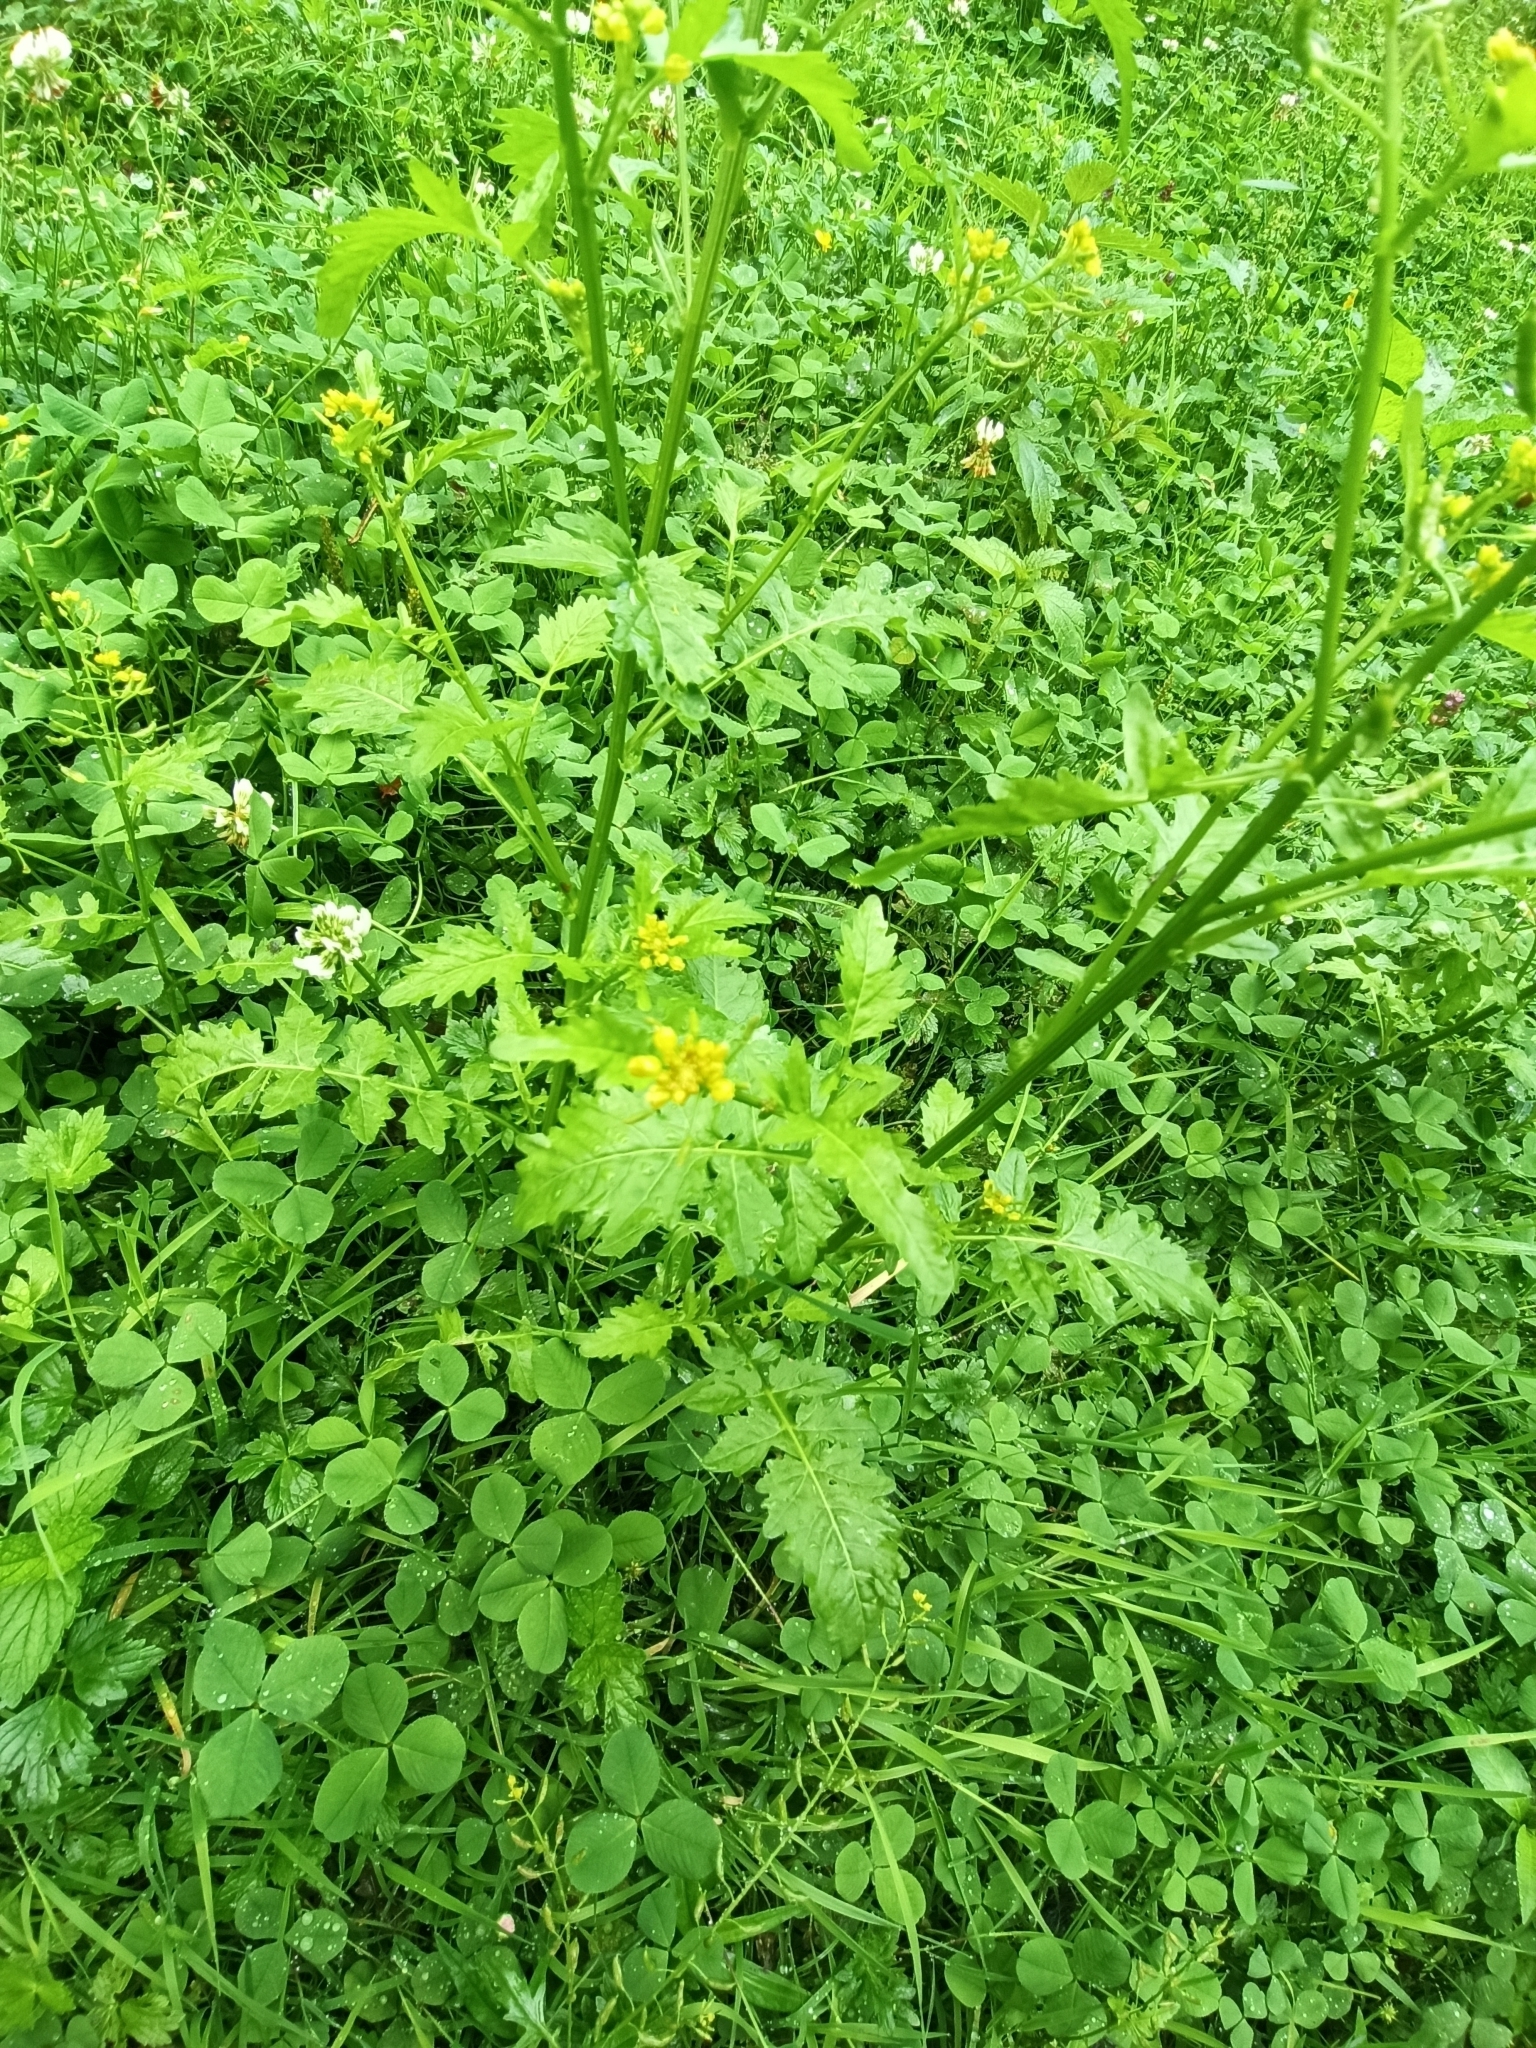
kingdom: Plantae
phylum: Tracheophyta
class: Magnoliopsida
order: Brassicales
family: Brassicaceae
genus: Rorippa
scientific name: Rorippa palustris
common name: Marsh yellow-cress
